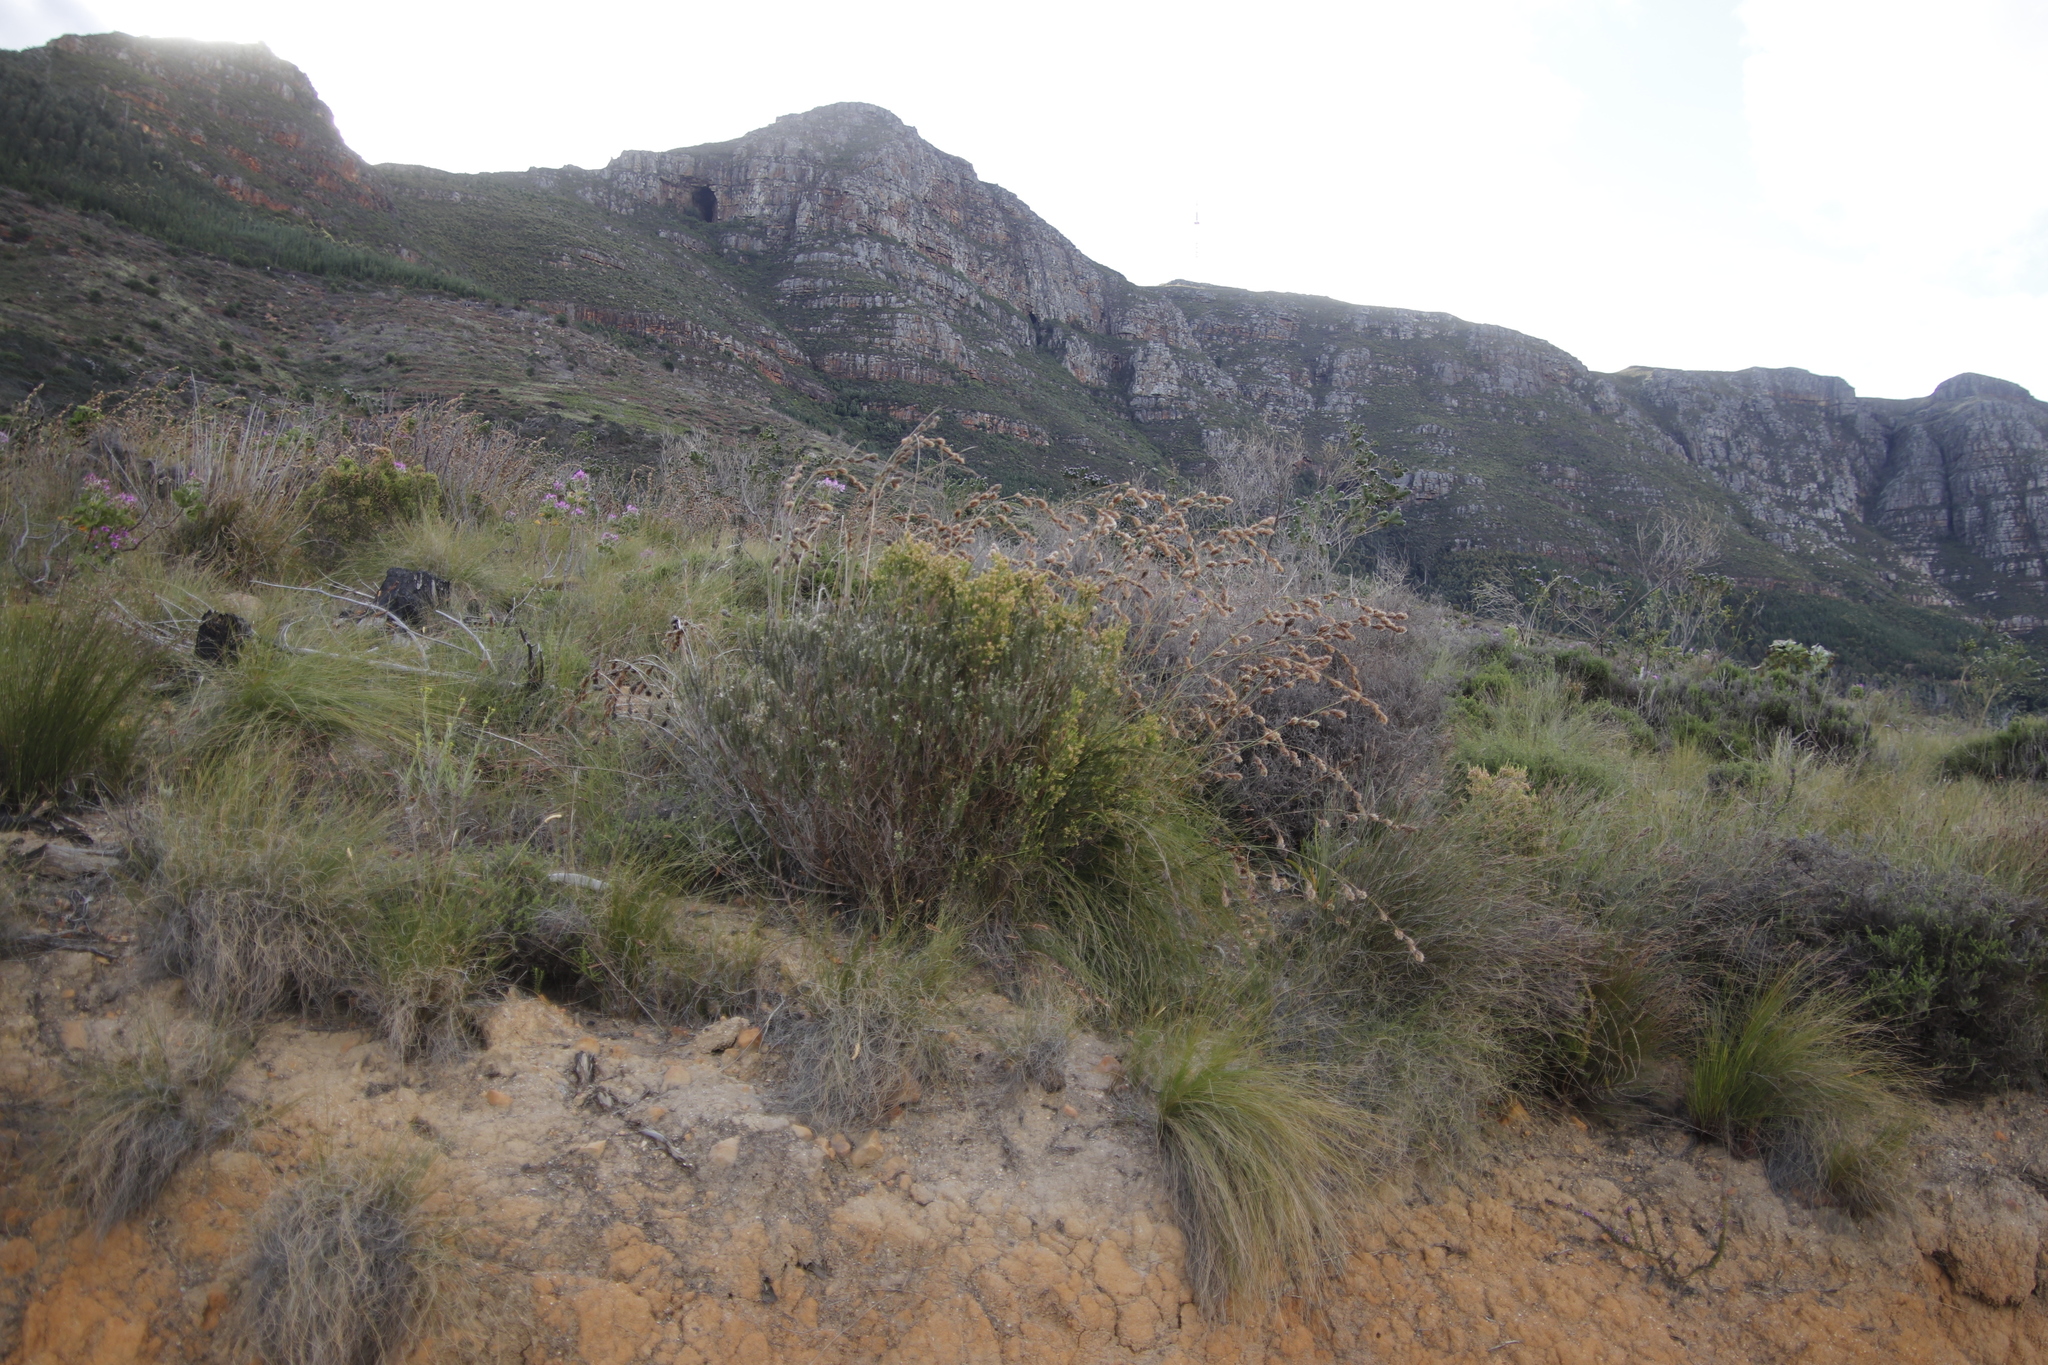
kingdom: Plantae
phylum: Tracheophyta
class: Liliopsida
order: Poales
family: Cyperaceae
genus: Tetraria
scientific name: Tetraria bromoides
